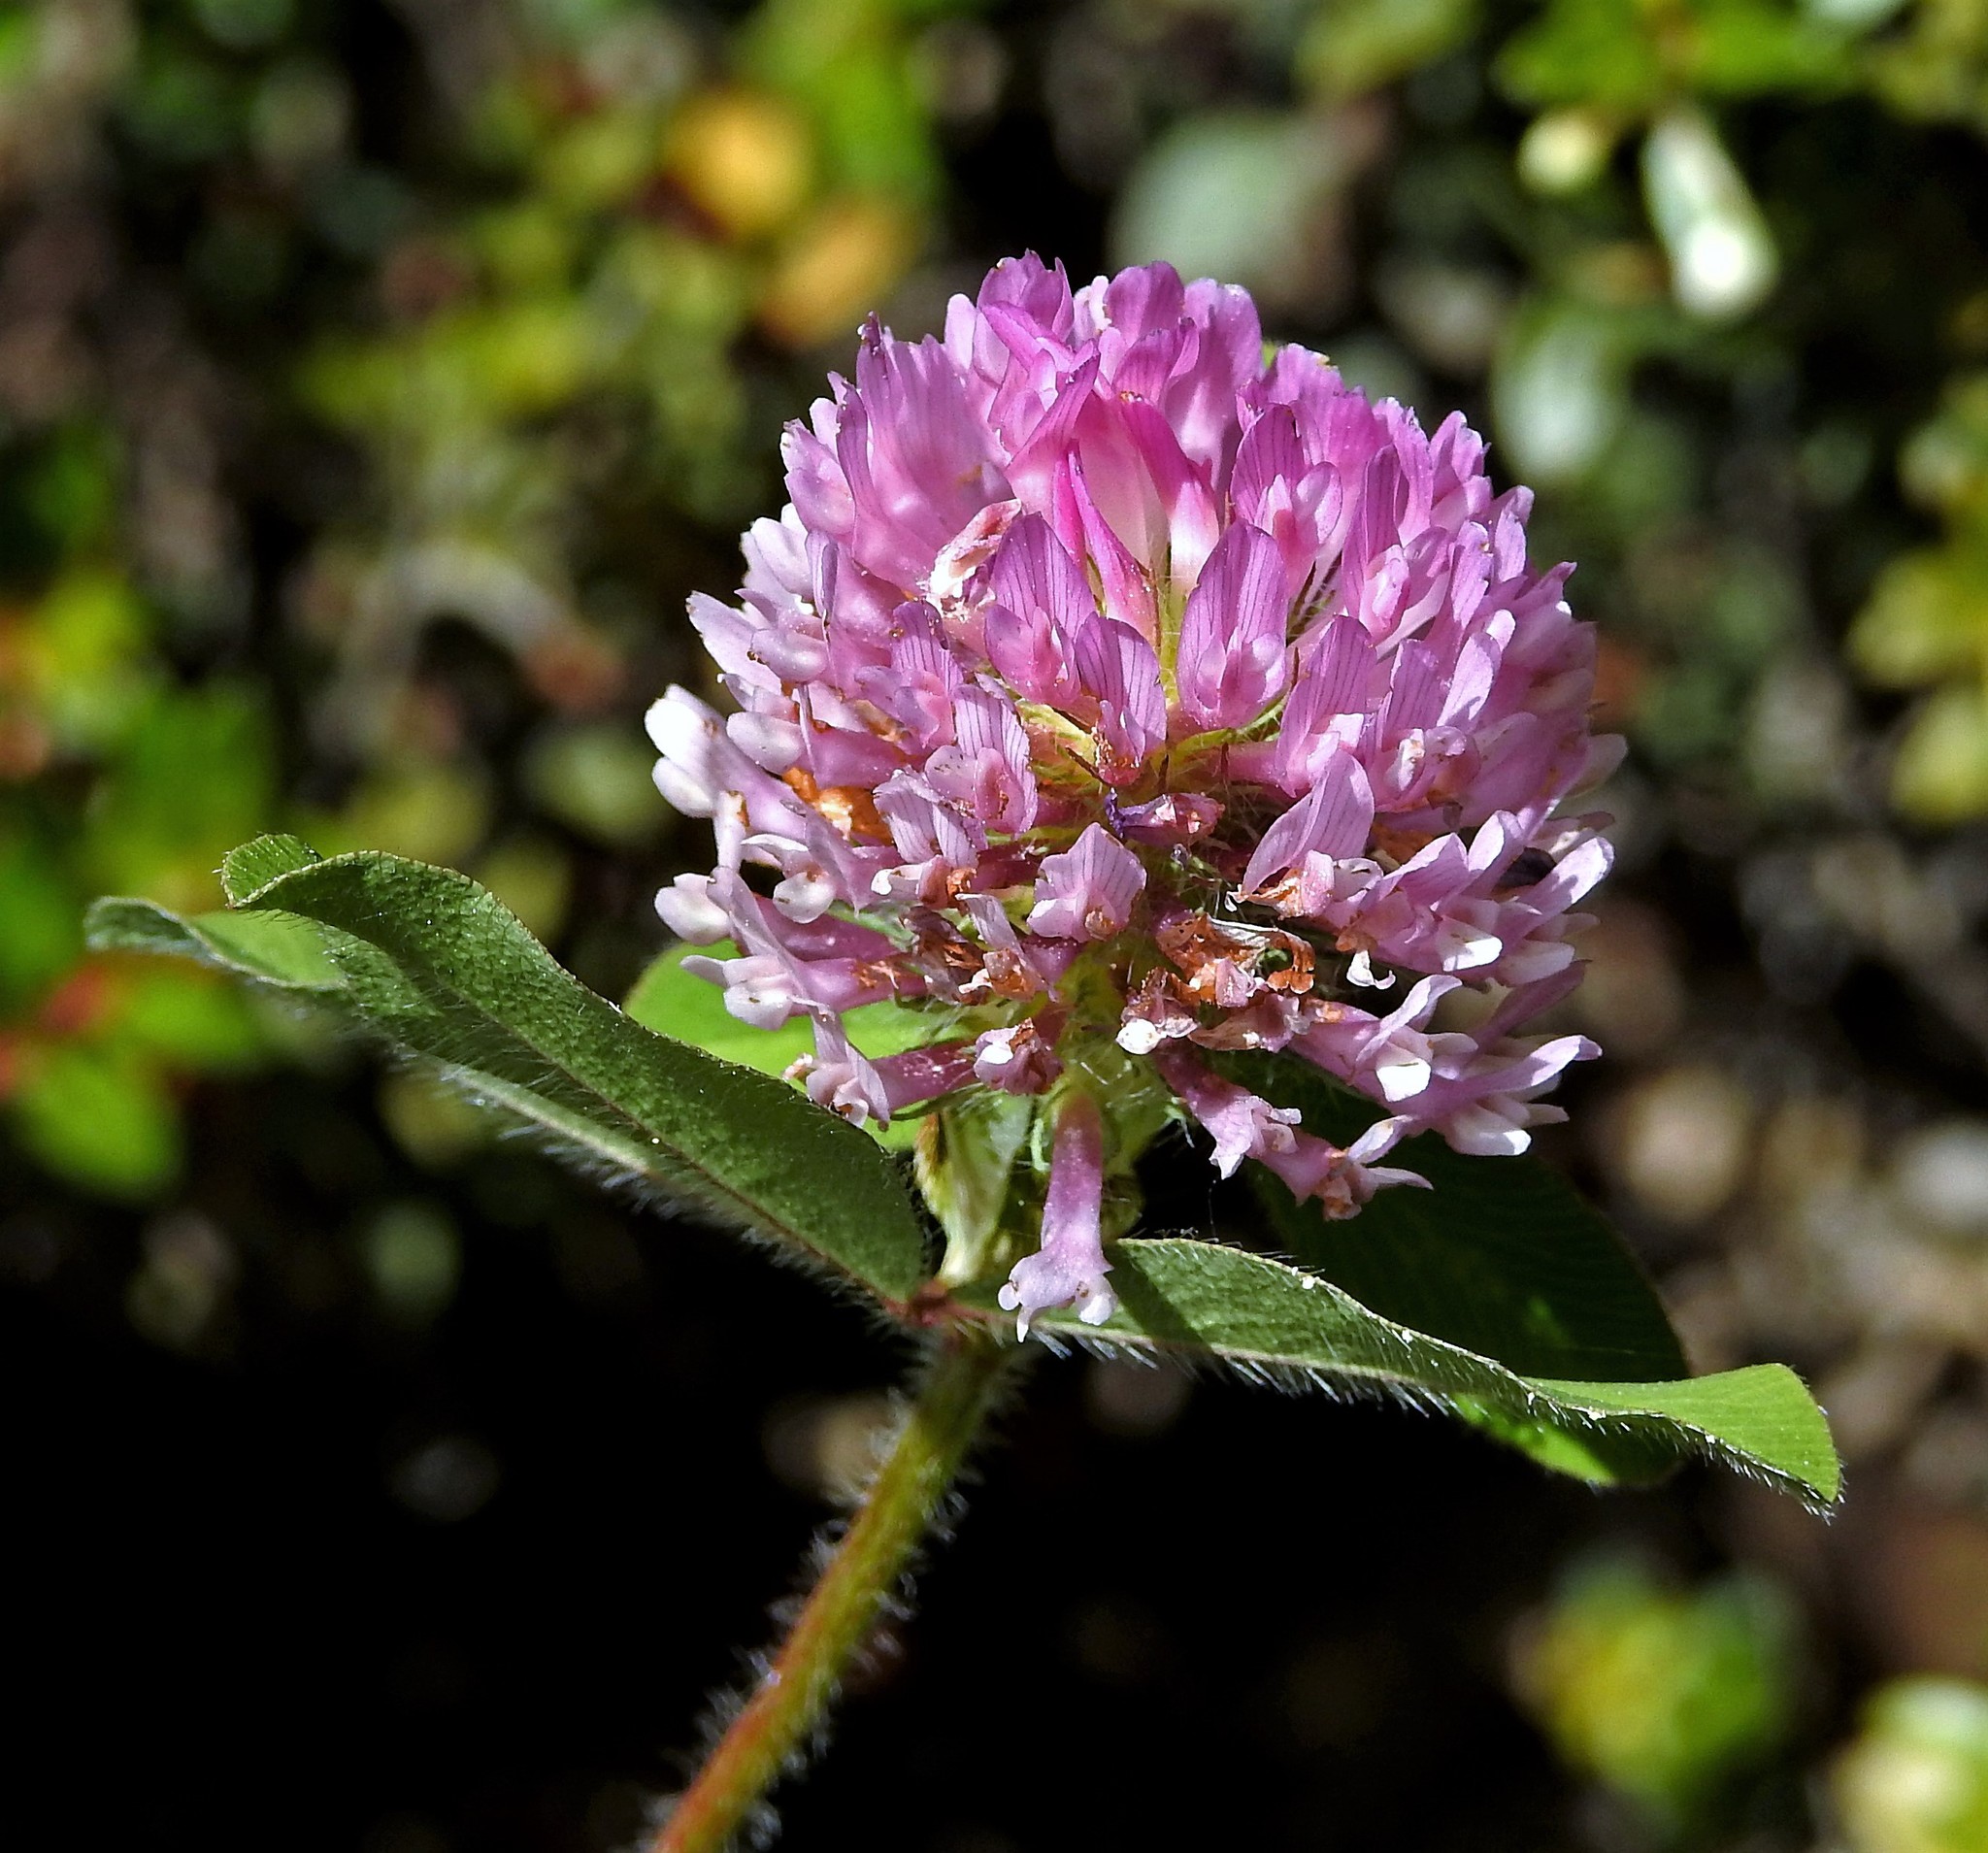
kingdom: Plantae
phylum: Tracheophyta
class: Magnoliopsida
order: Fabales
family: Fabaceae
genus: Trifolium
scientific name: Trifolium pratense
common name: Red clover
